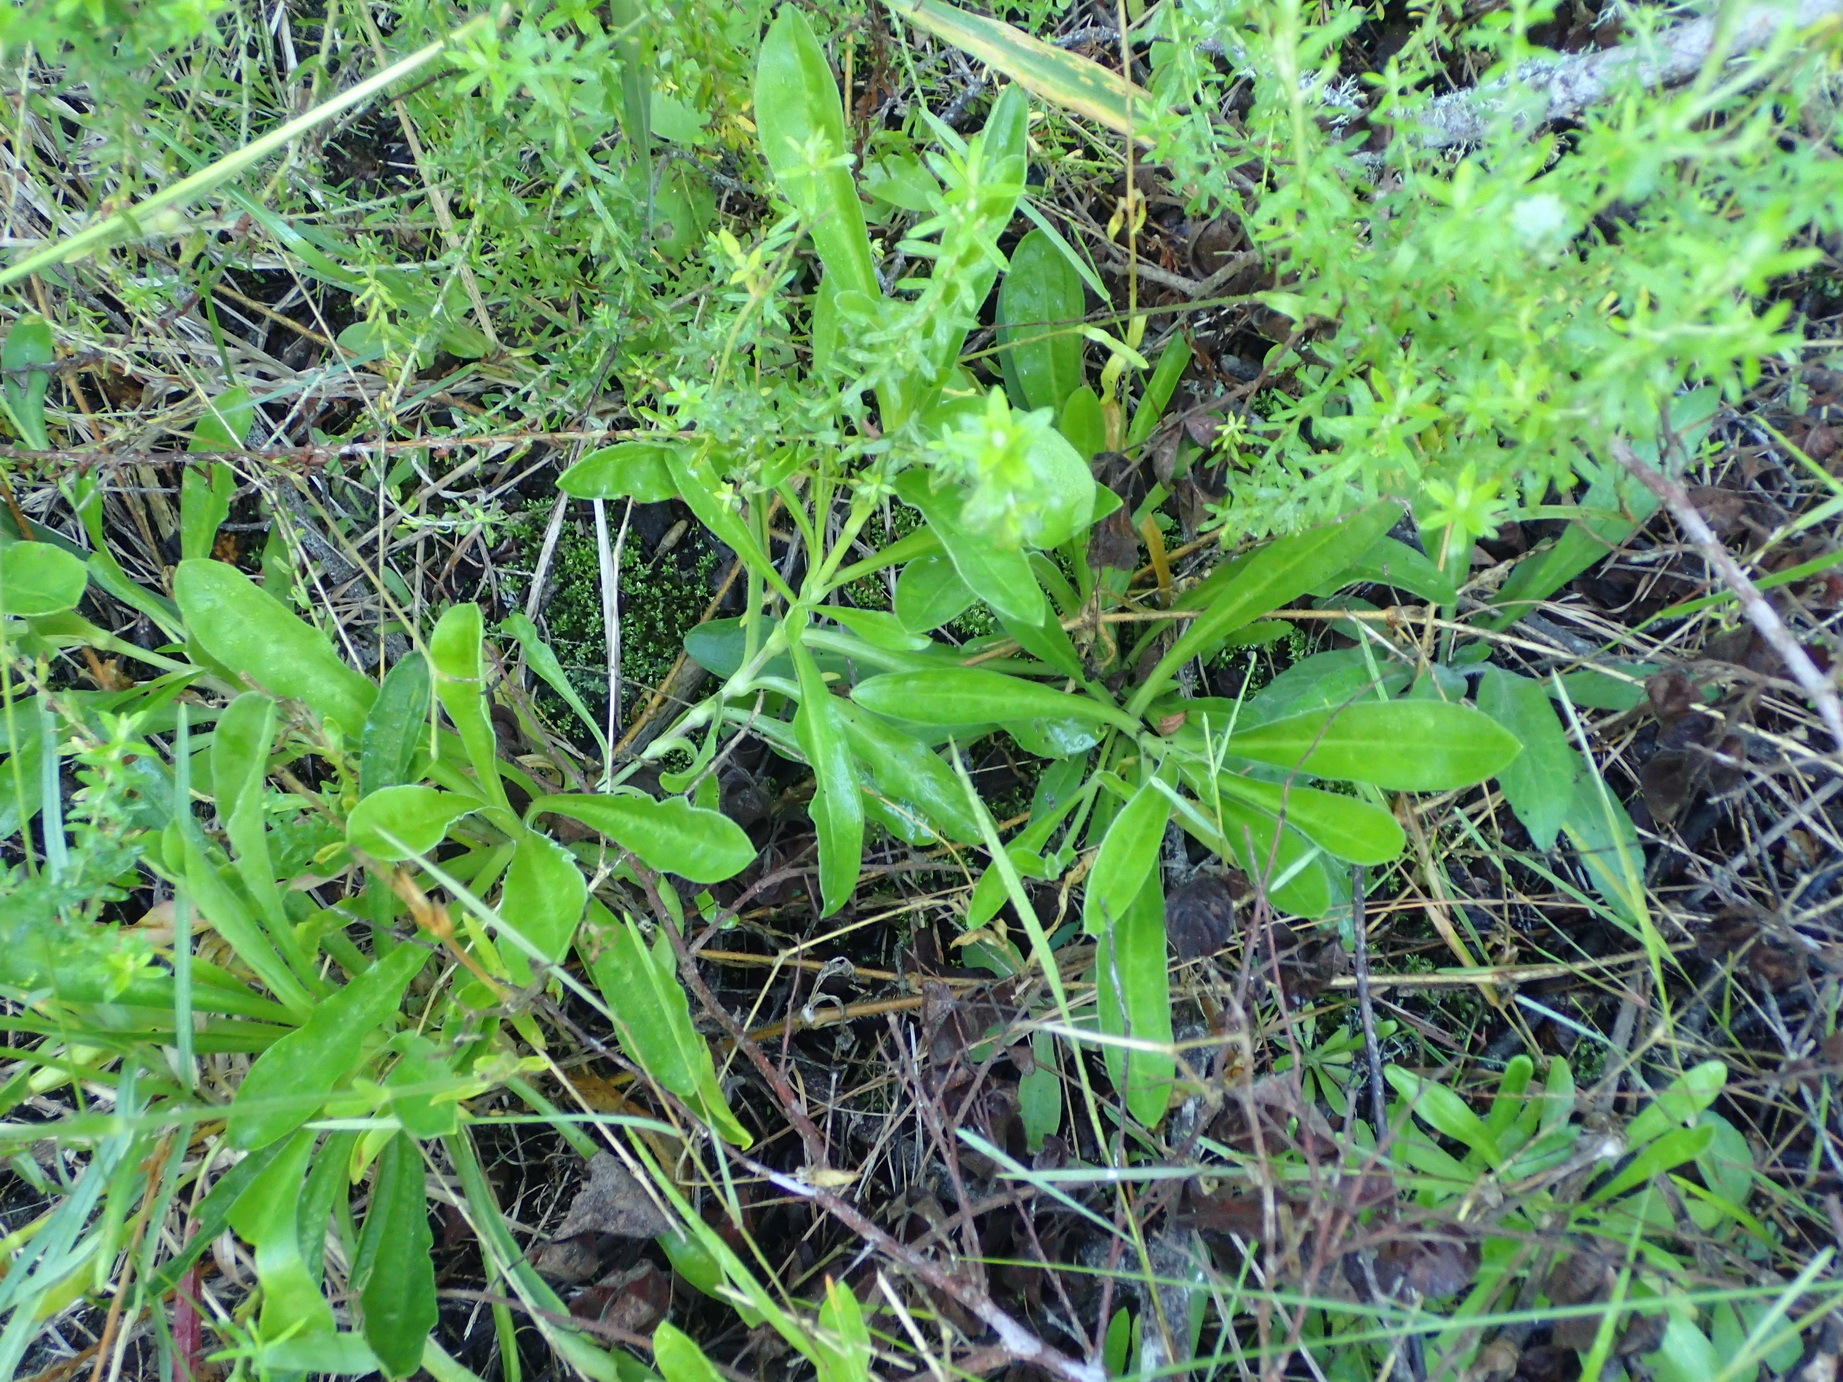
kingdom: Plantae
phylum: Tracheophyta
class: Magnoliopsida
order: Caryophyllales
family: Caryophyllaceae
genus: Silene
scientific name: Silene undulata
